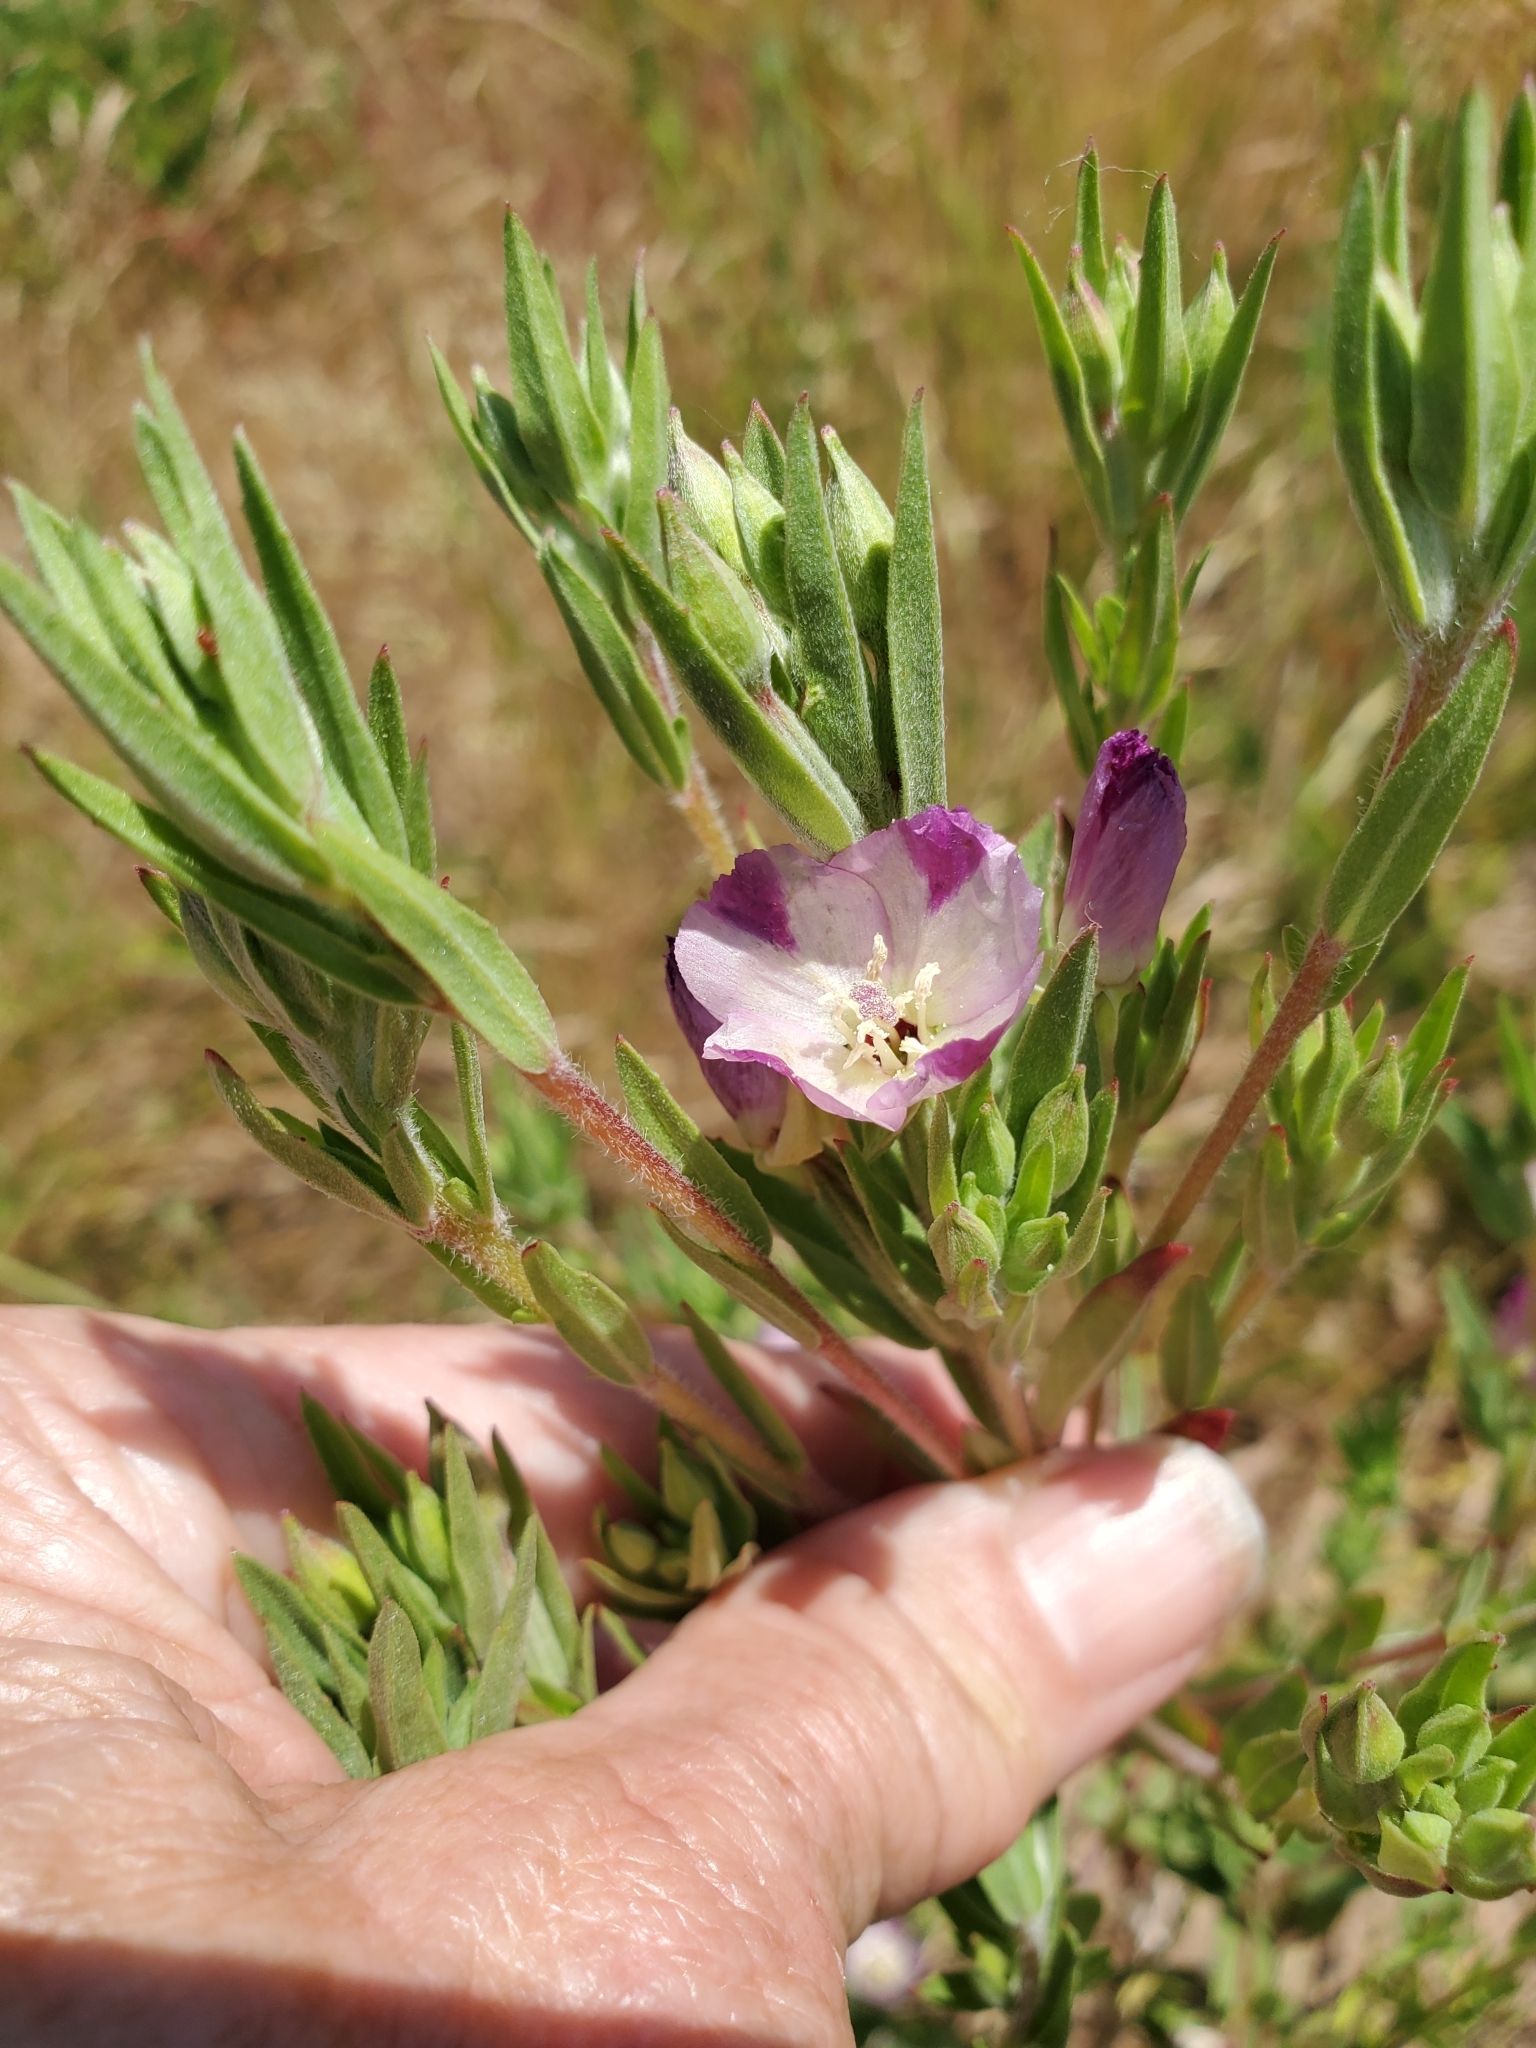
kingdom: Plantae
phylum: Tracheophyta
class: Magnoliopsida
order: Myrtales
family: Onagraceae
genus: Clarkia
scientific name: Clarkia purpurea
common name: Purple clarkia
